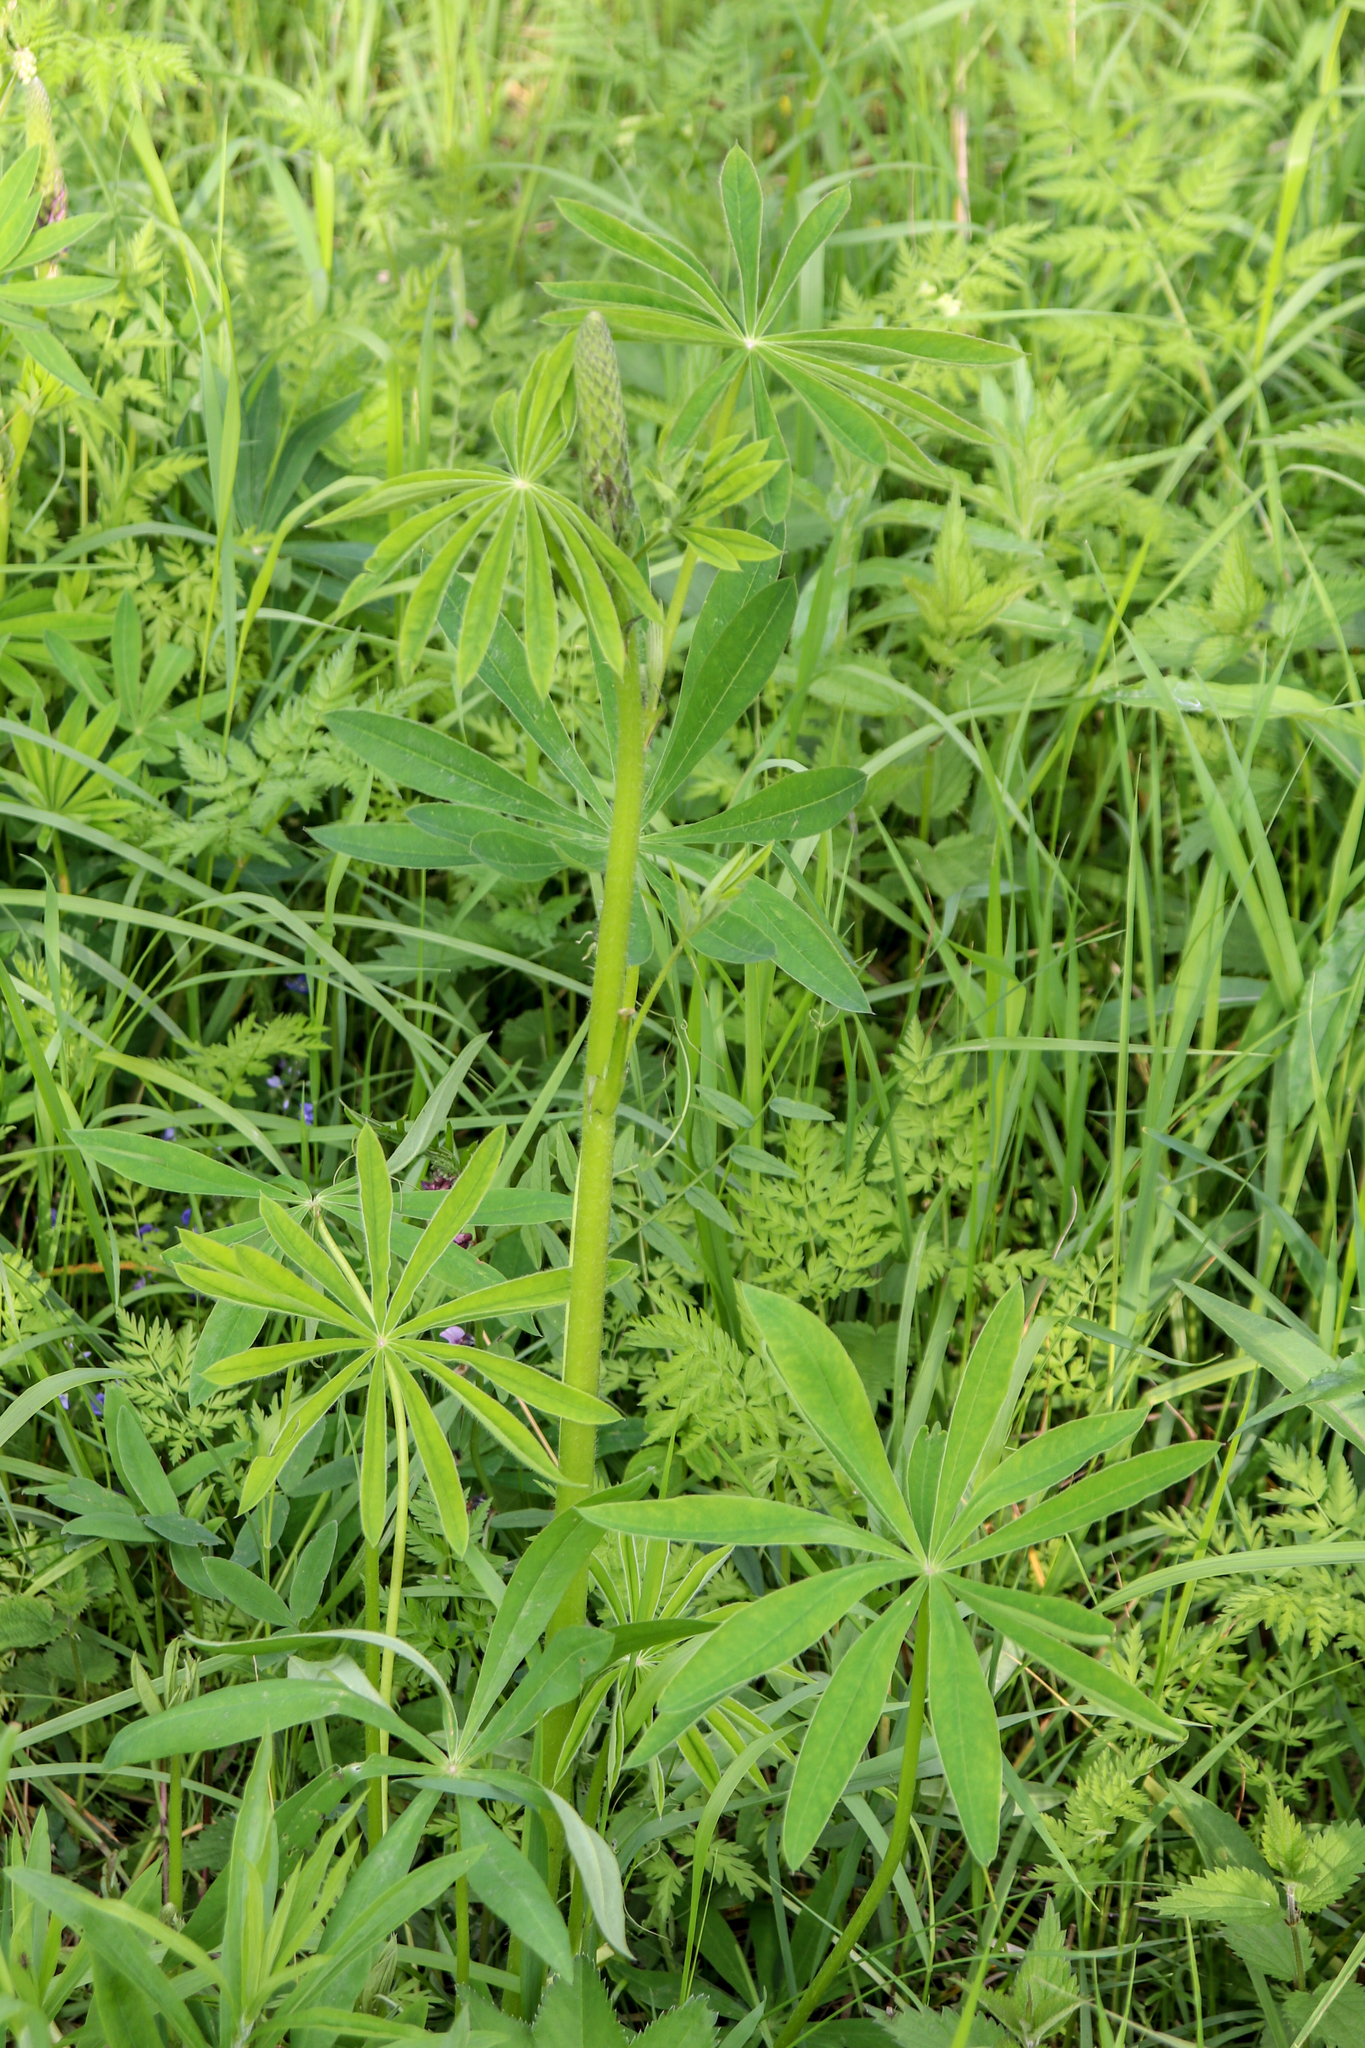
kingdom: Plantae
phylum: Tracheophyta
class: Magnoliopsida
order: Fabales
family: Fabaceae
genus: Lupinus
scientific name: Lupinus polyphyllus
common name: Garden lupin
